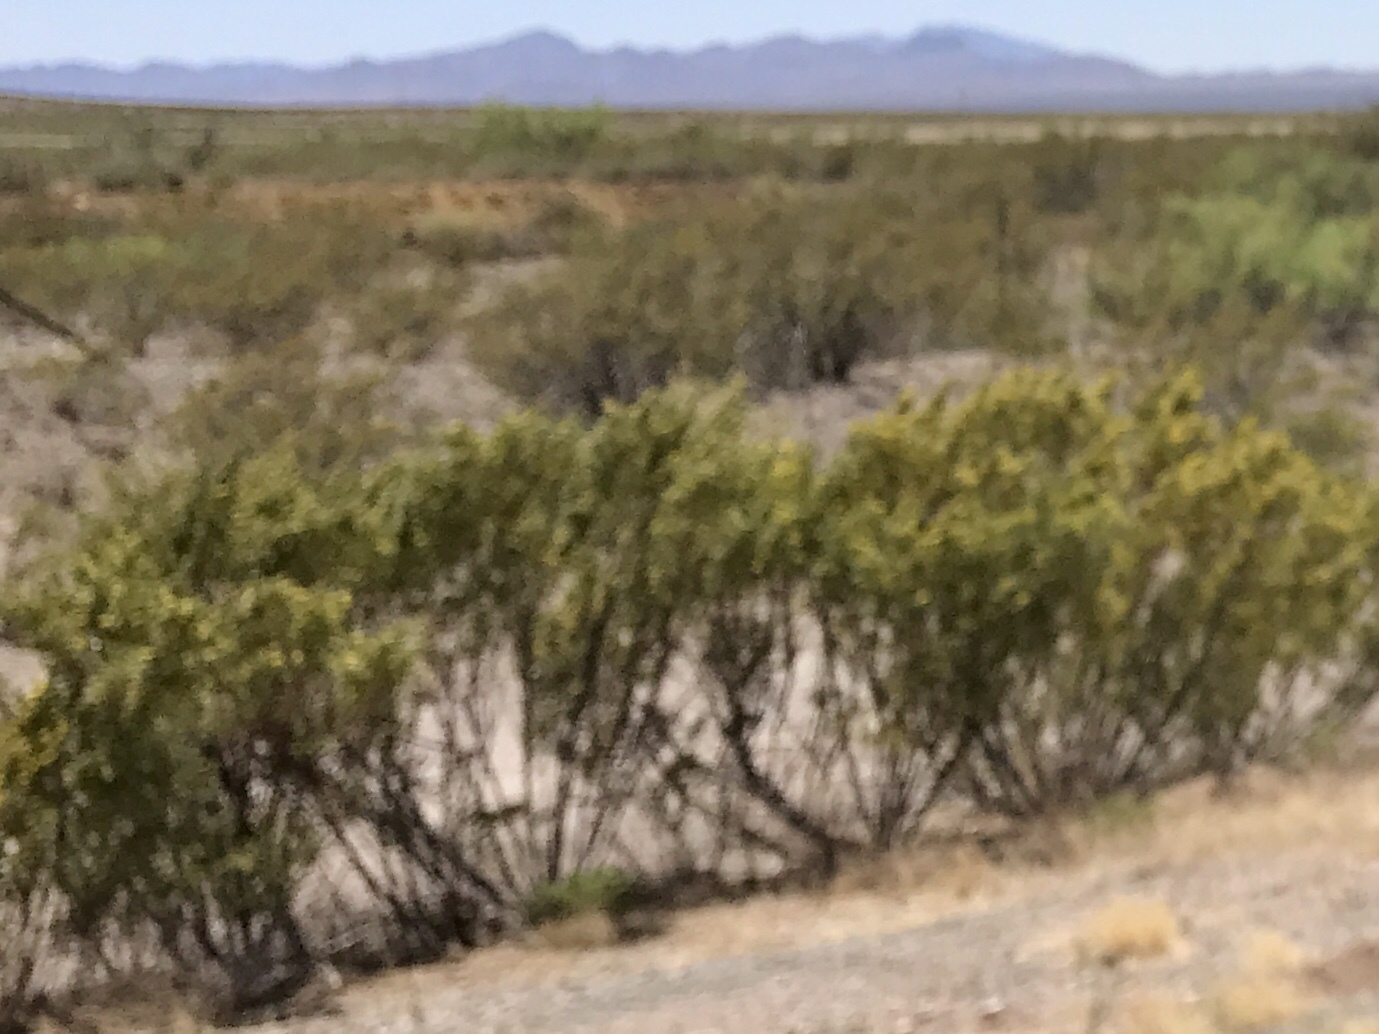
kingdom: Plantae
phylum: Tracheophyta
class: Magnoliopsida
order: Zygophyllales
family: Zygophyllaceae
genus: Larrea
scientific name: Larrea tridentata
